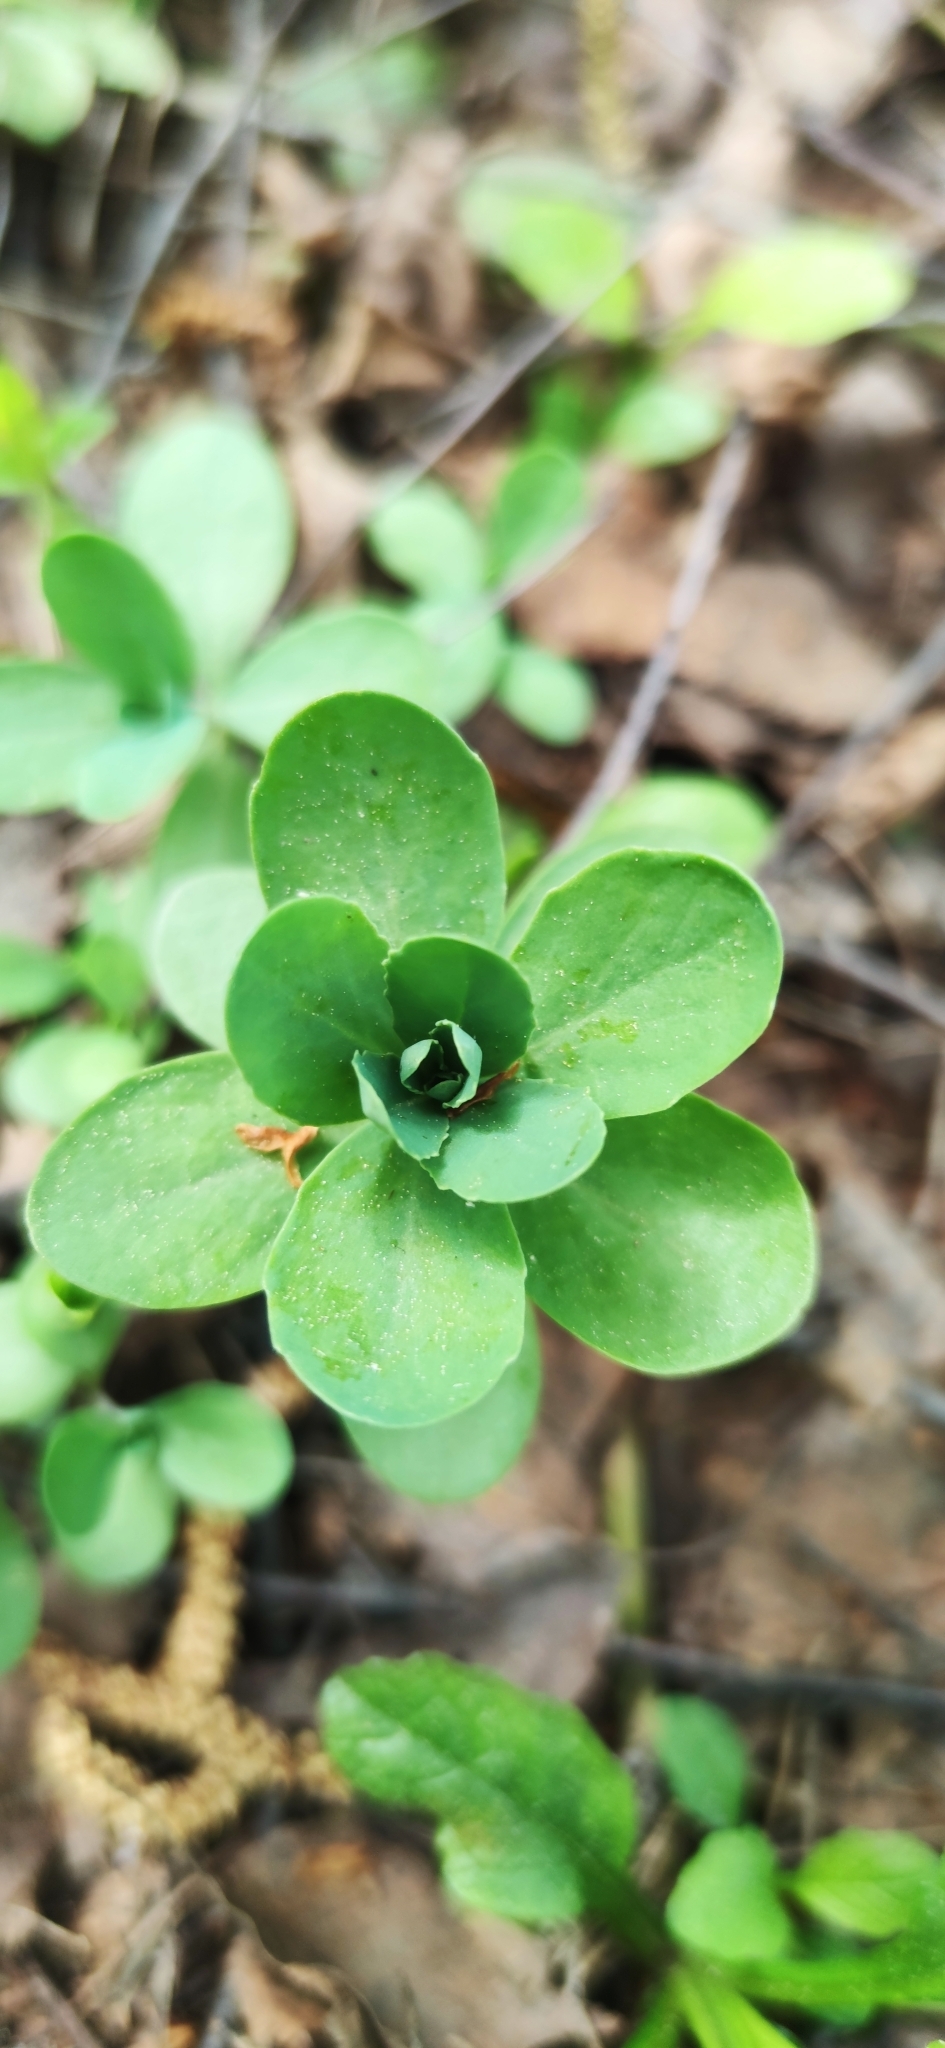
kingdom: Plantae
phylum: Tracheophyta
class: Magnoliopsida
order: Saxifragales
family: Crassulaceae
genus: Hylotelephium
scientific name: Hylotelephium telephium
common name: Live-forever
